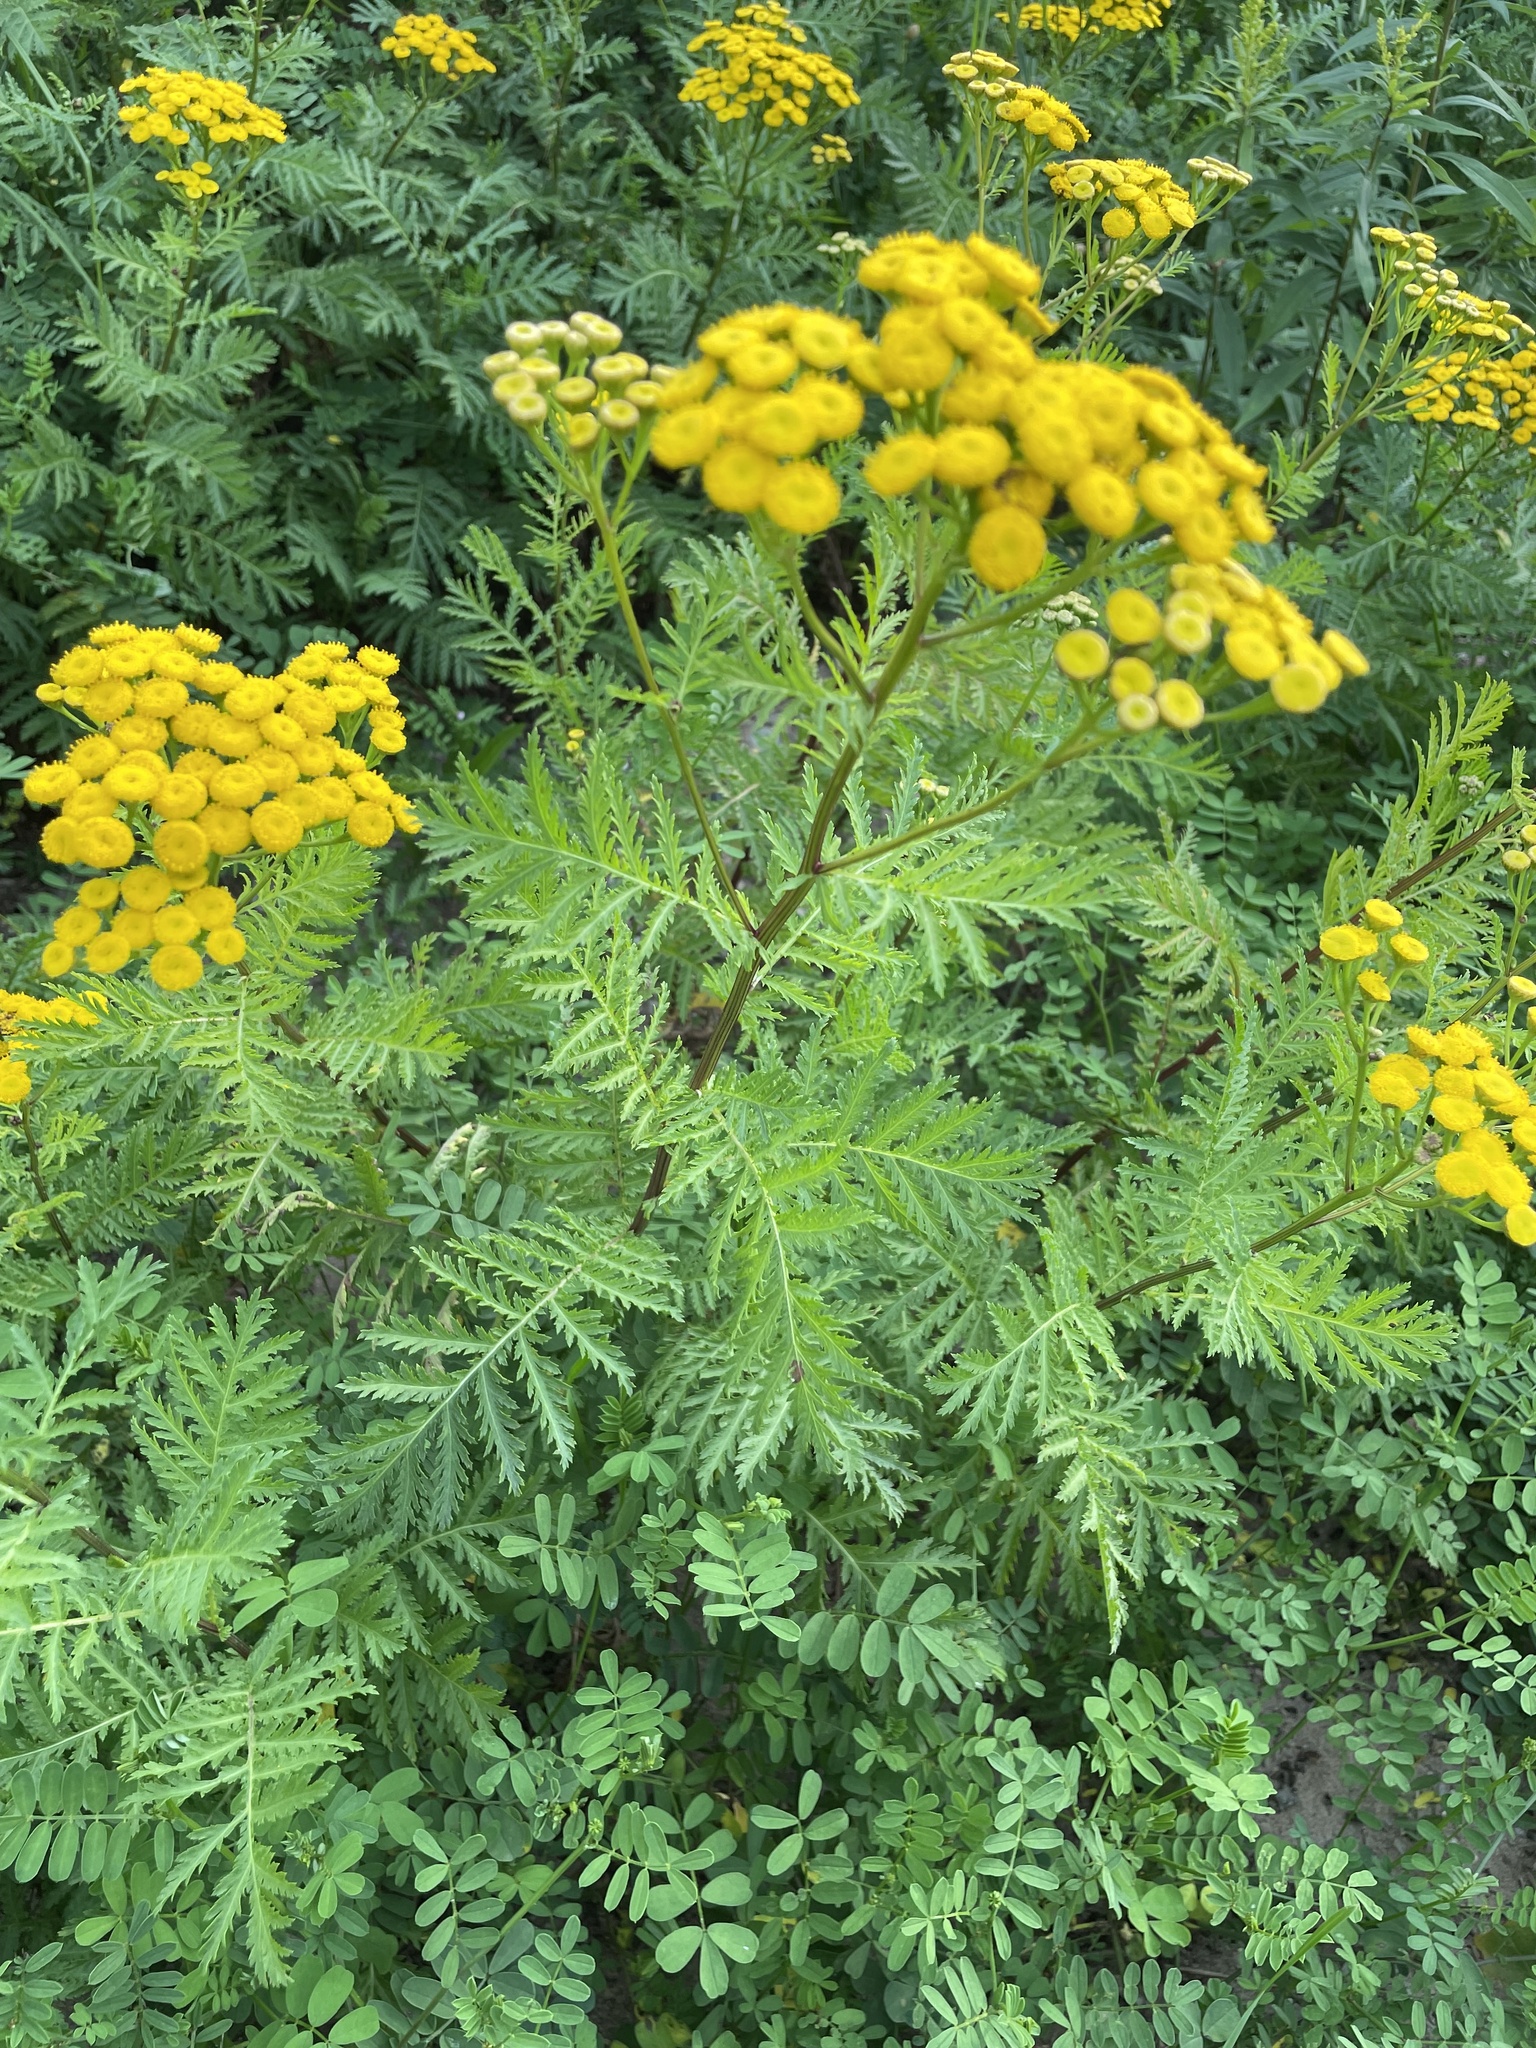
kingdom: Plantae
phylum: Tracheophyta
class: Magnoliopsida
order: Asterales
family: Asteraceae
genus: Tanacetum
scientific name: Tanacetum vulgare
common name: Common tansy
